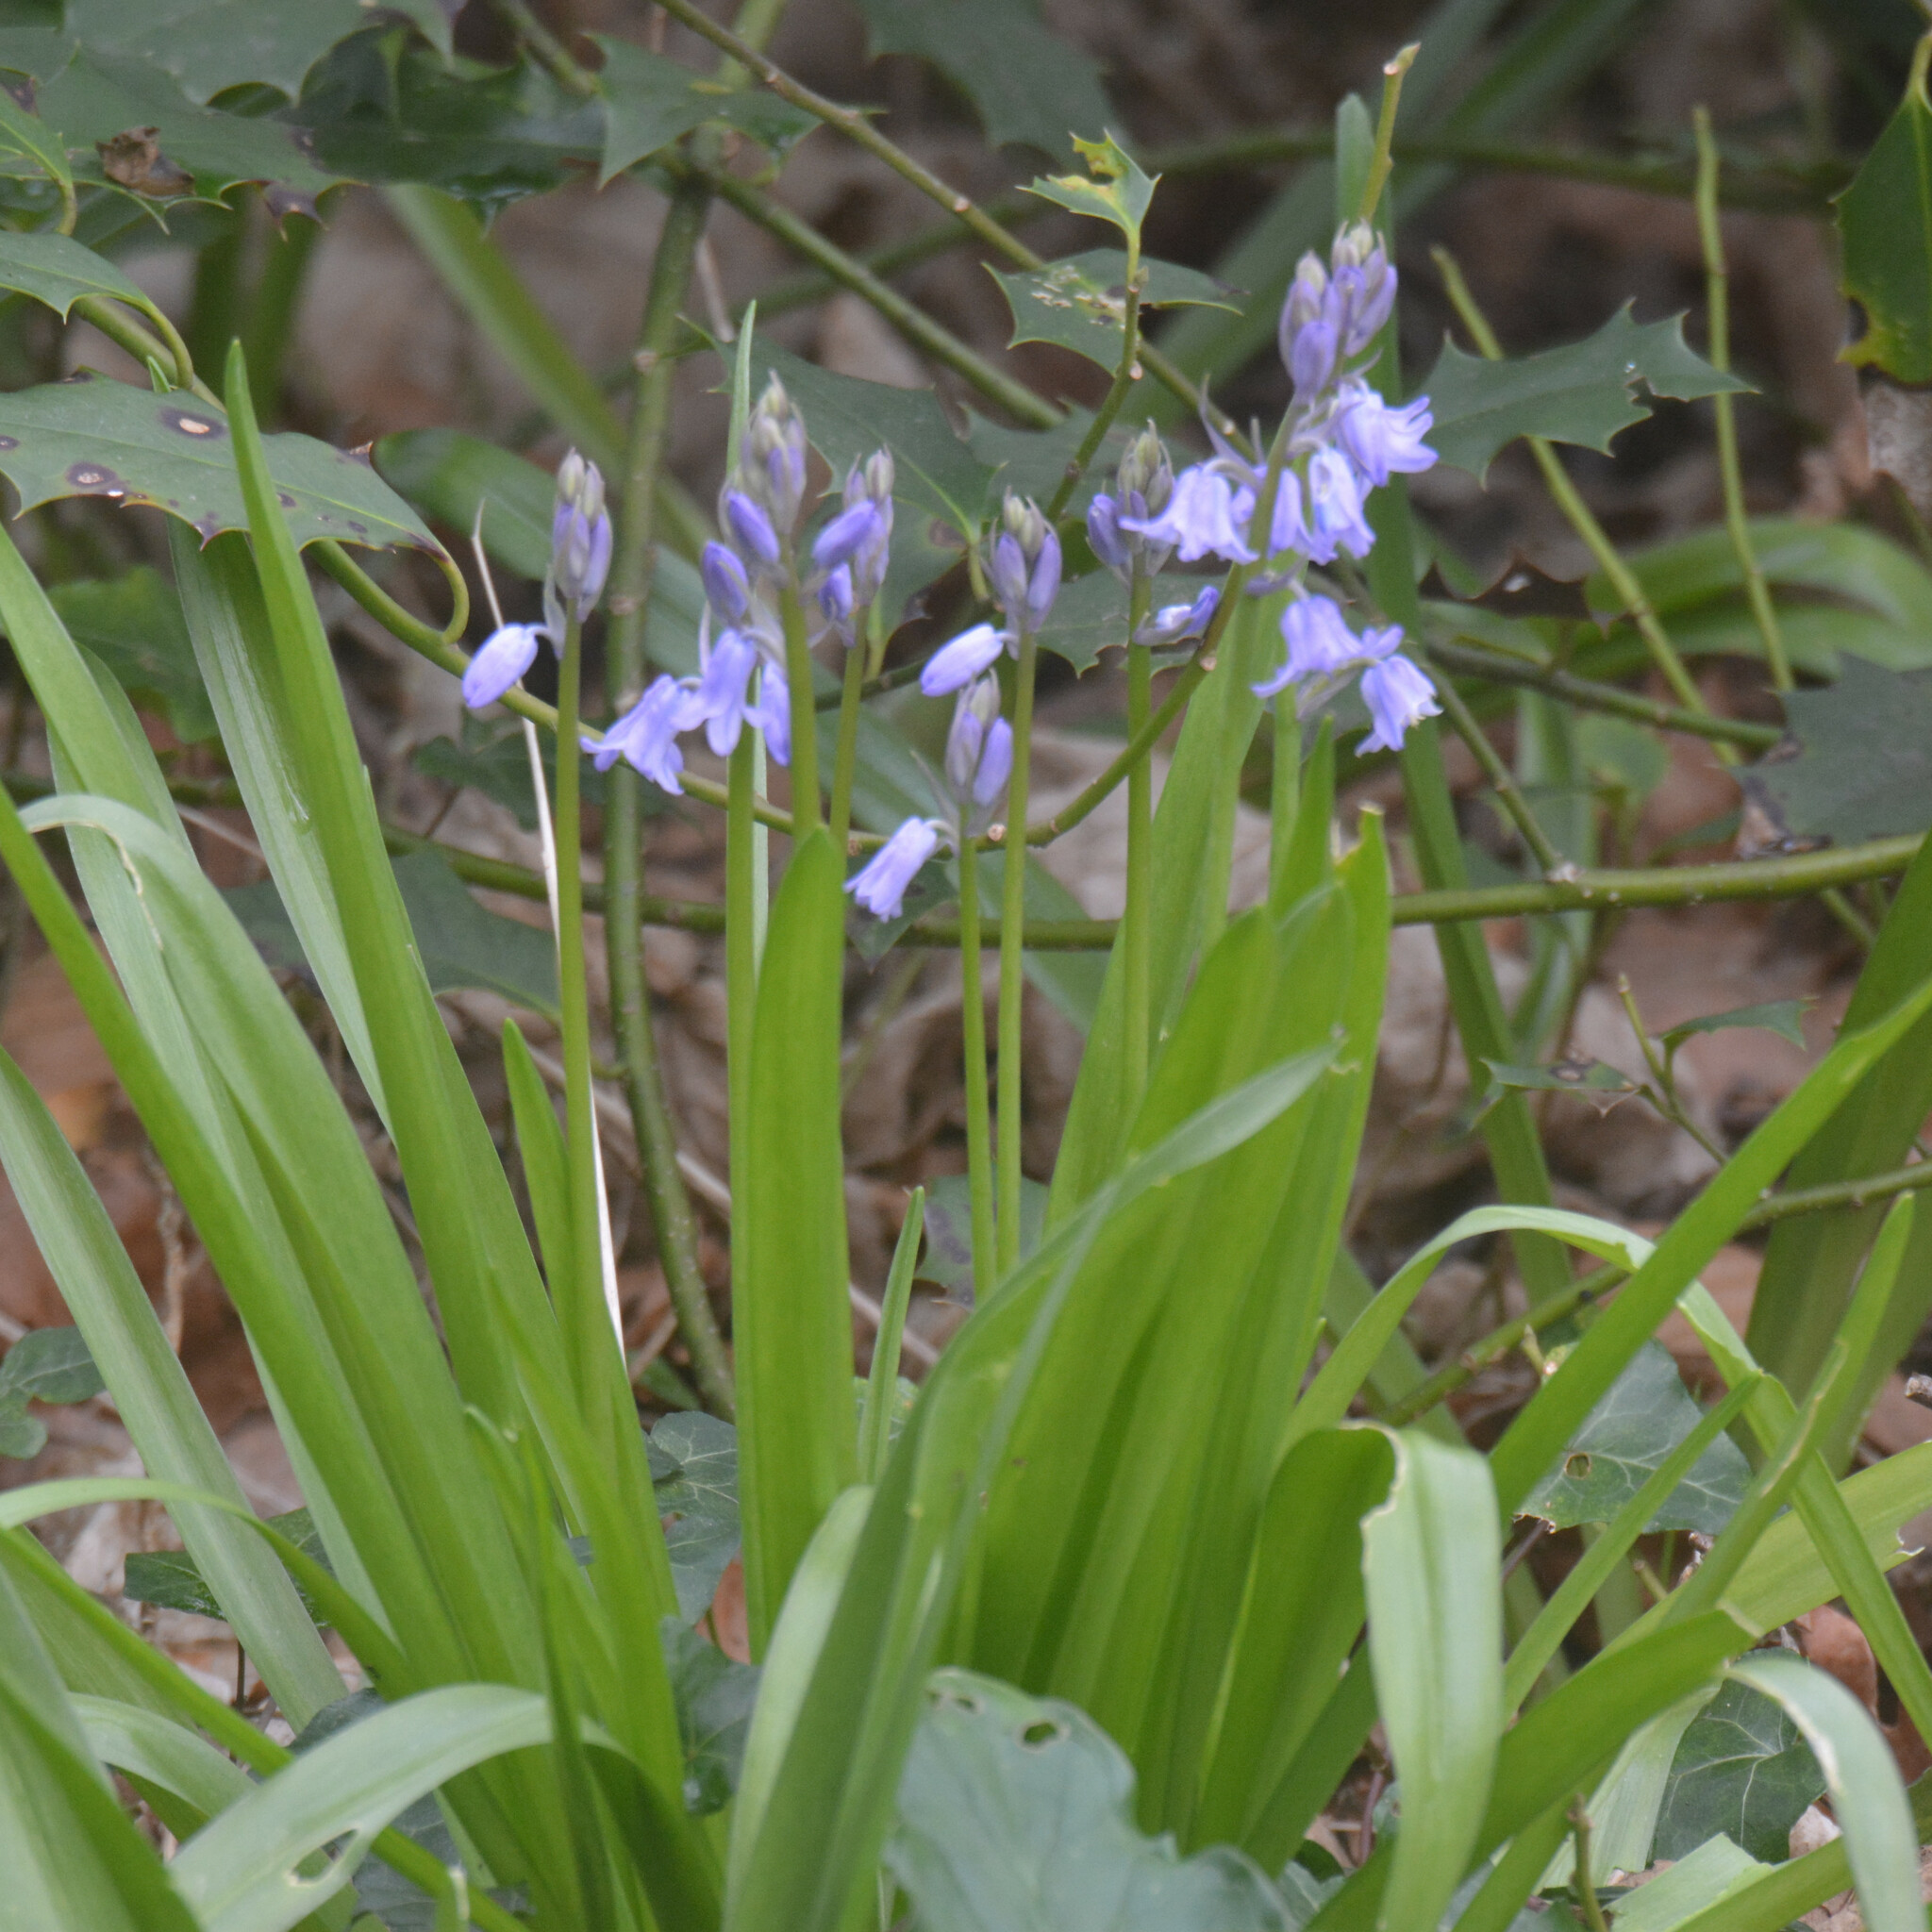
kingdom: Plantae
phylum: Tracheophyta
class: Liliopsida
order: Asparagales
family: Asparagaceae
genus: Hyacinthoides
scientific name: Hyacinthoides hispanica
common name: Spanish bluebell
